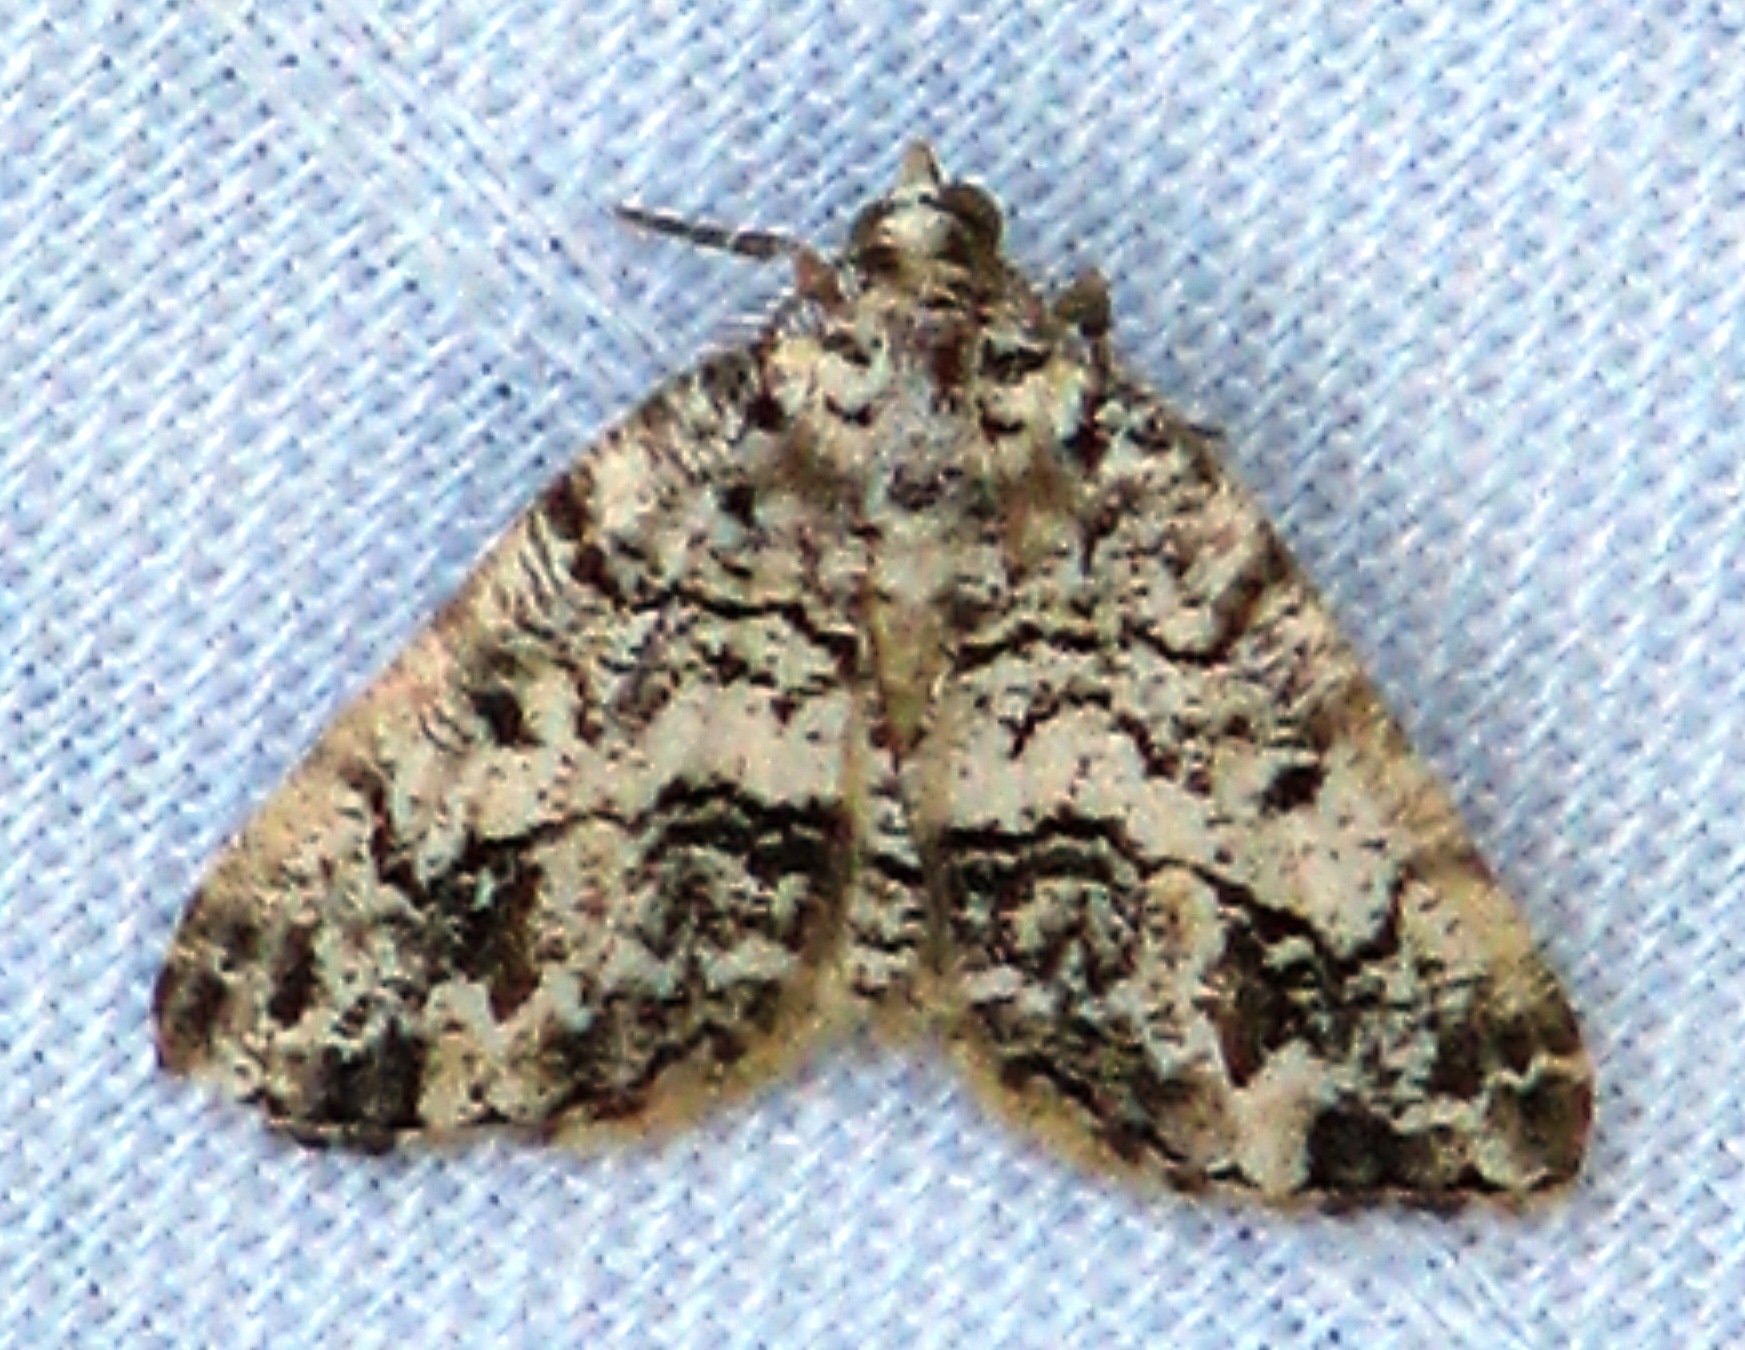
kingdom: Animalia
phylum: Arthropoda
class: Insecta
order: Lepidoptera
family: Geometridae
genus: Macaria
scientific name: Macaria graphidaria
